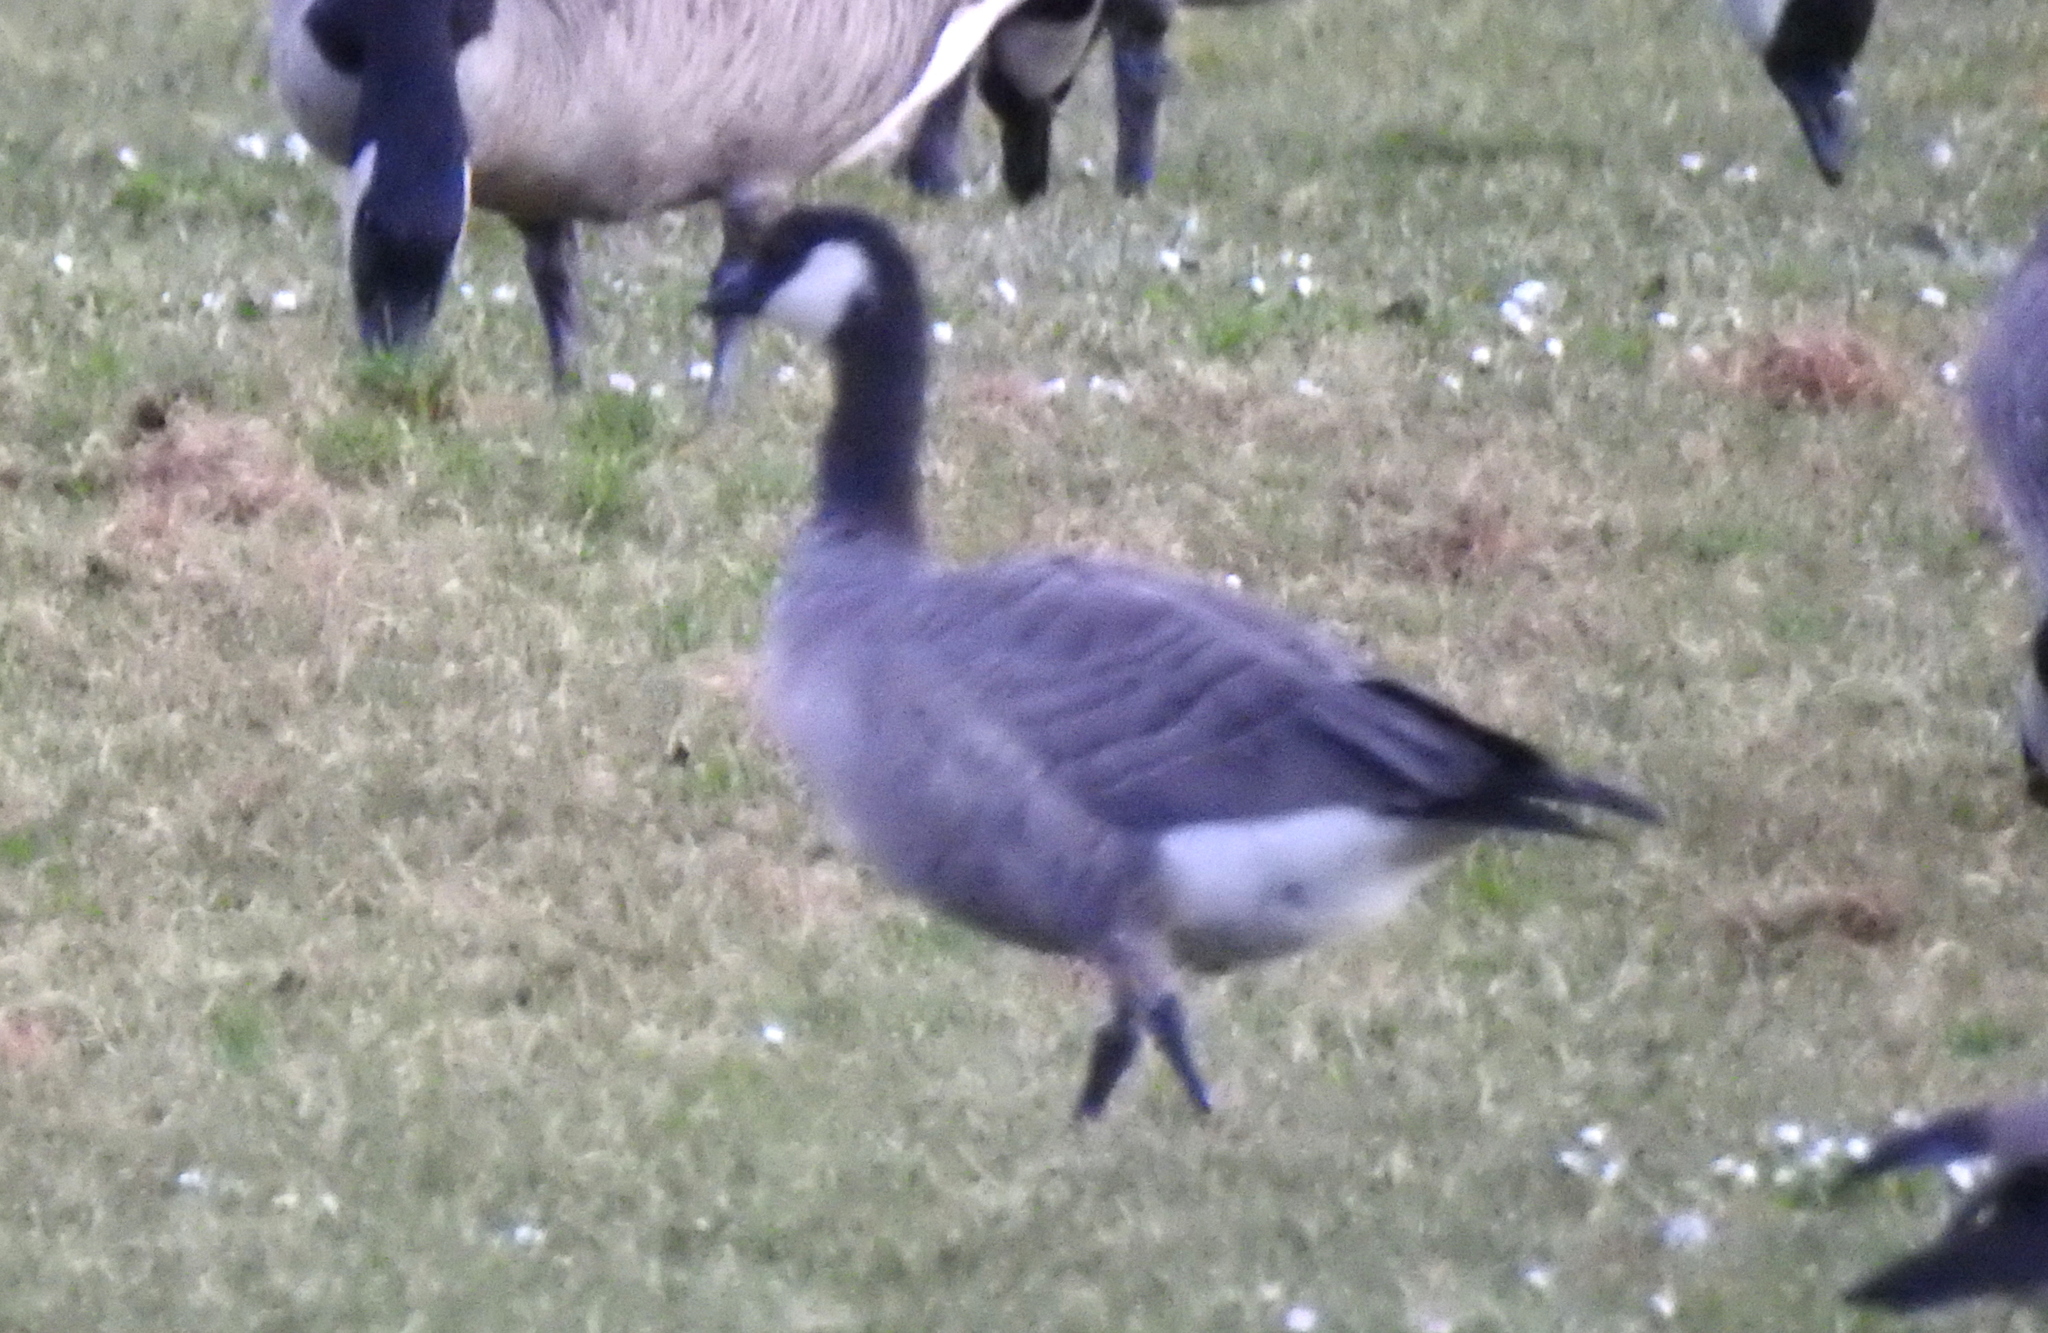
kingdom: Animalia
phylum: Chordata
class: Aves
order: Anseriformes
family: Anatidae
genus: Branta
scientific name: Branta hutchinsii
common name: Cackling goose
